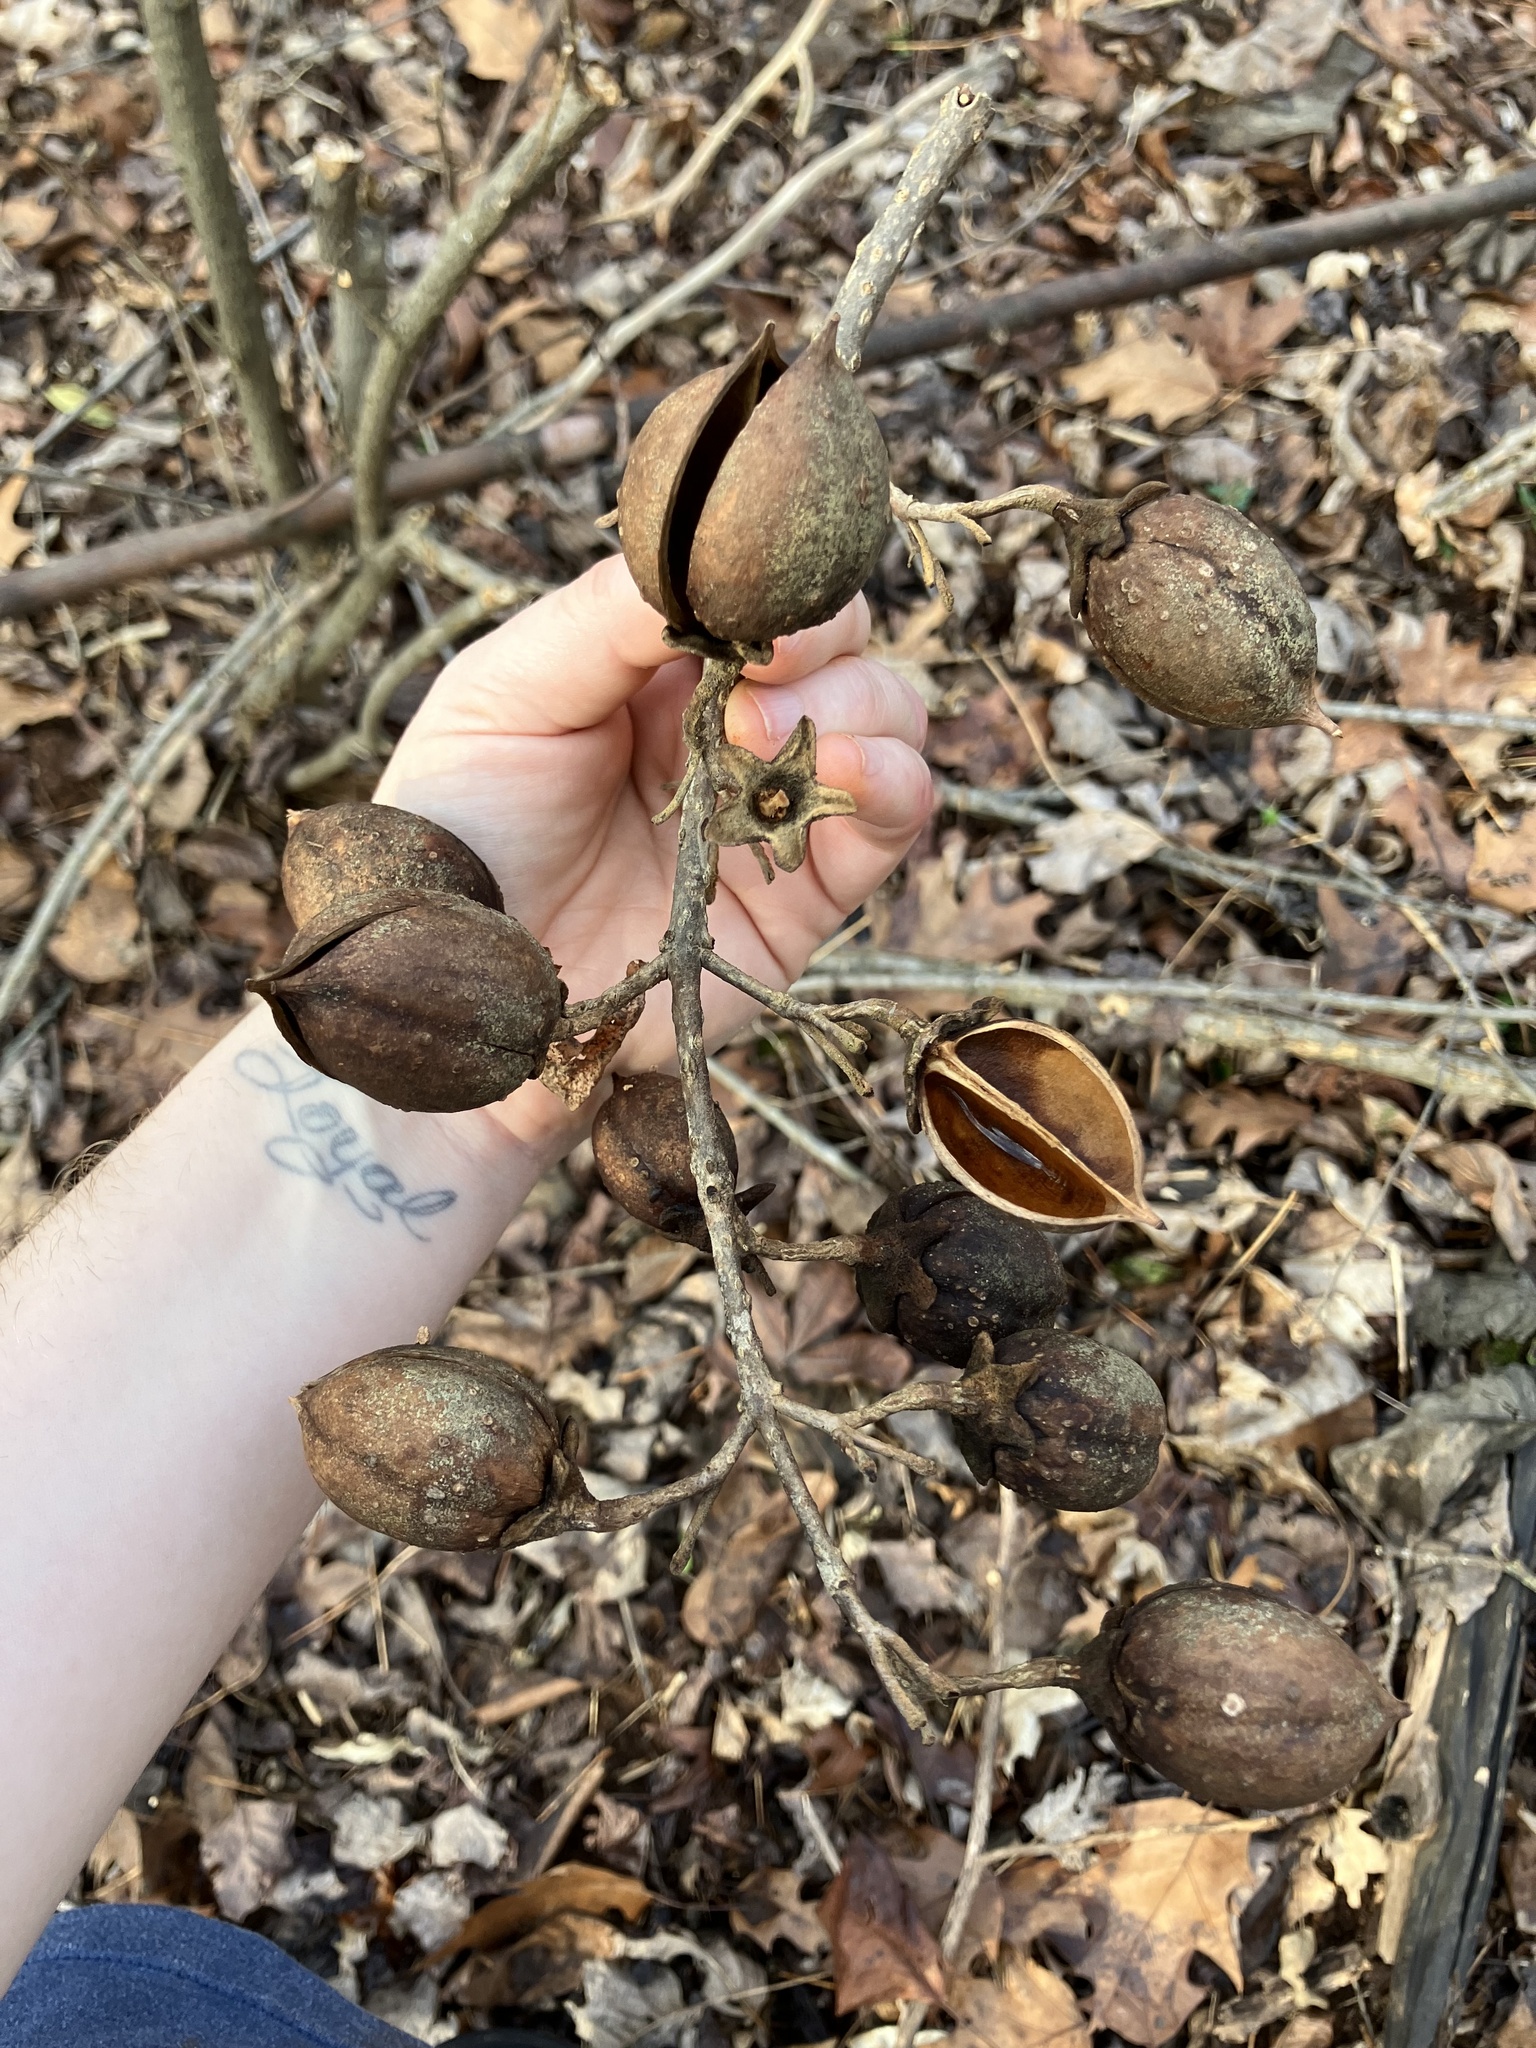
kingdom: Plantae
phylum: Tracheophyta
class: Magnoliopsida
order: Lamiales
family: Paulowniaceae
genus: Paulownia
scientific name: Paulownia tomentosa
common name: Foxglove-tree
